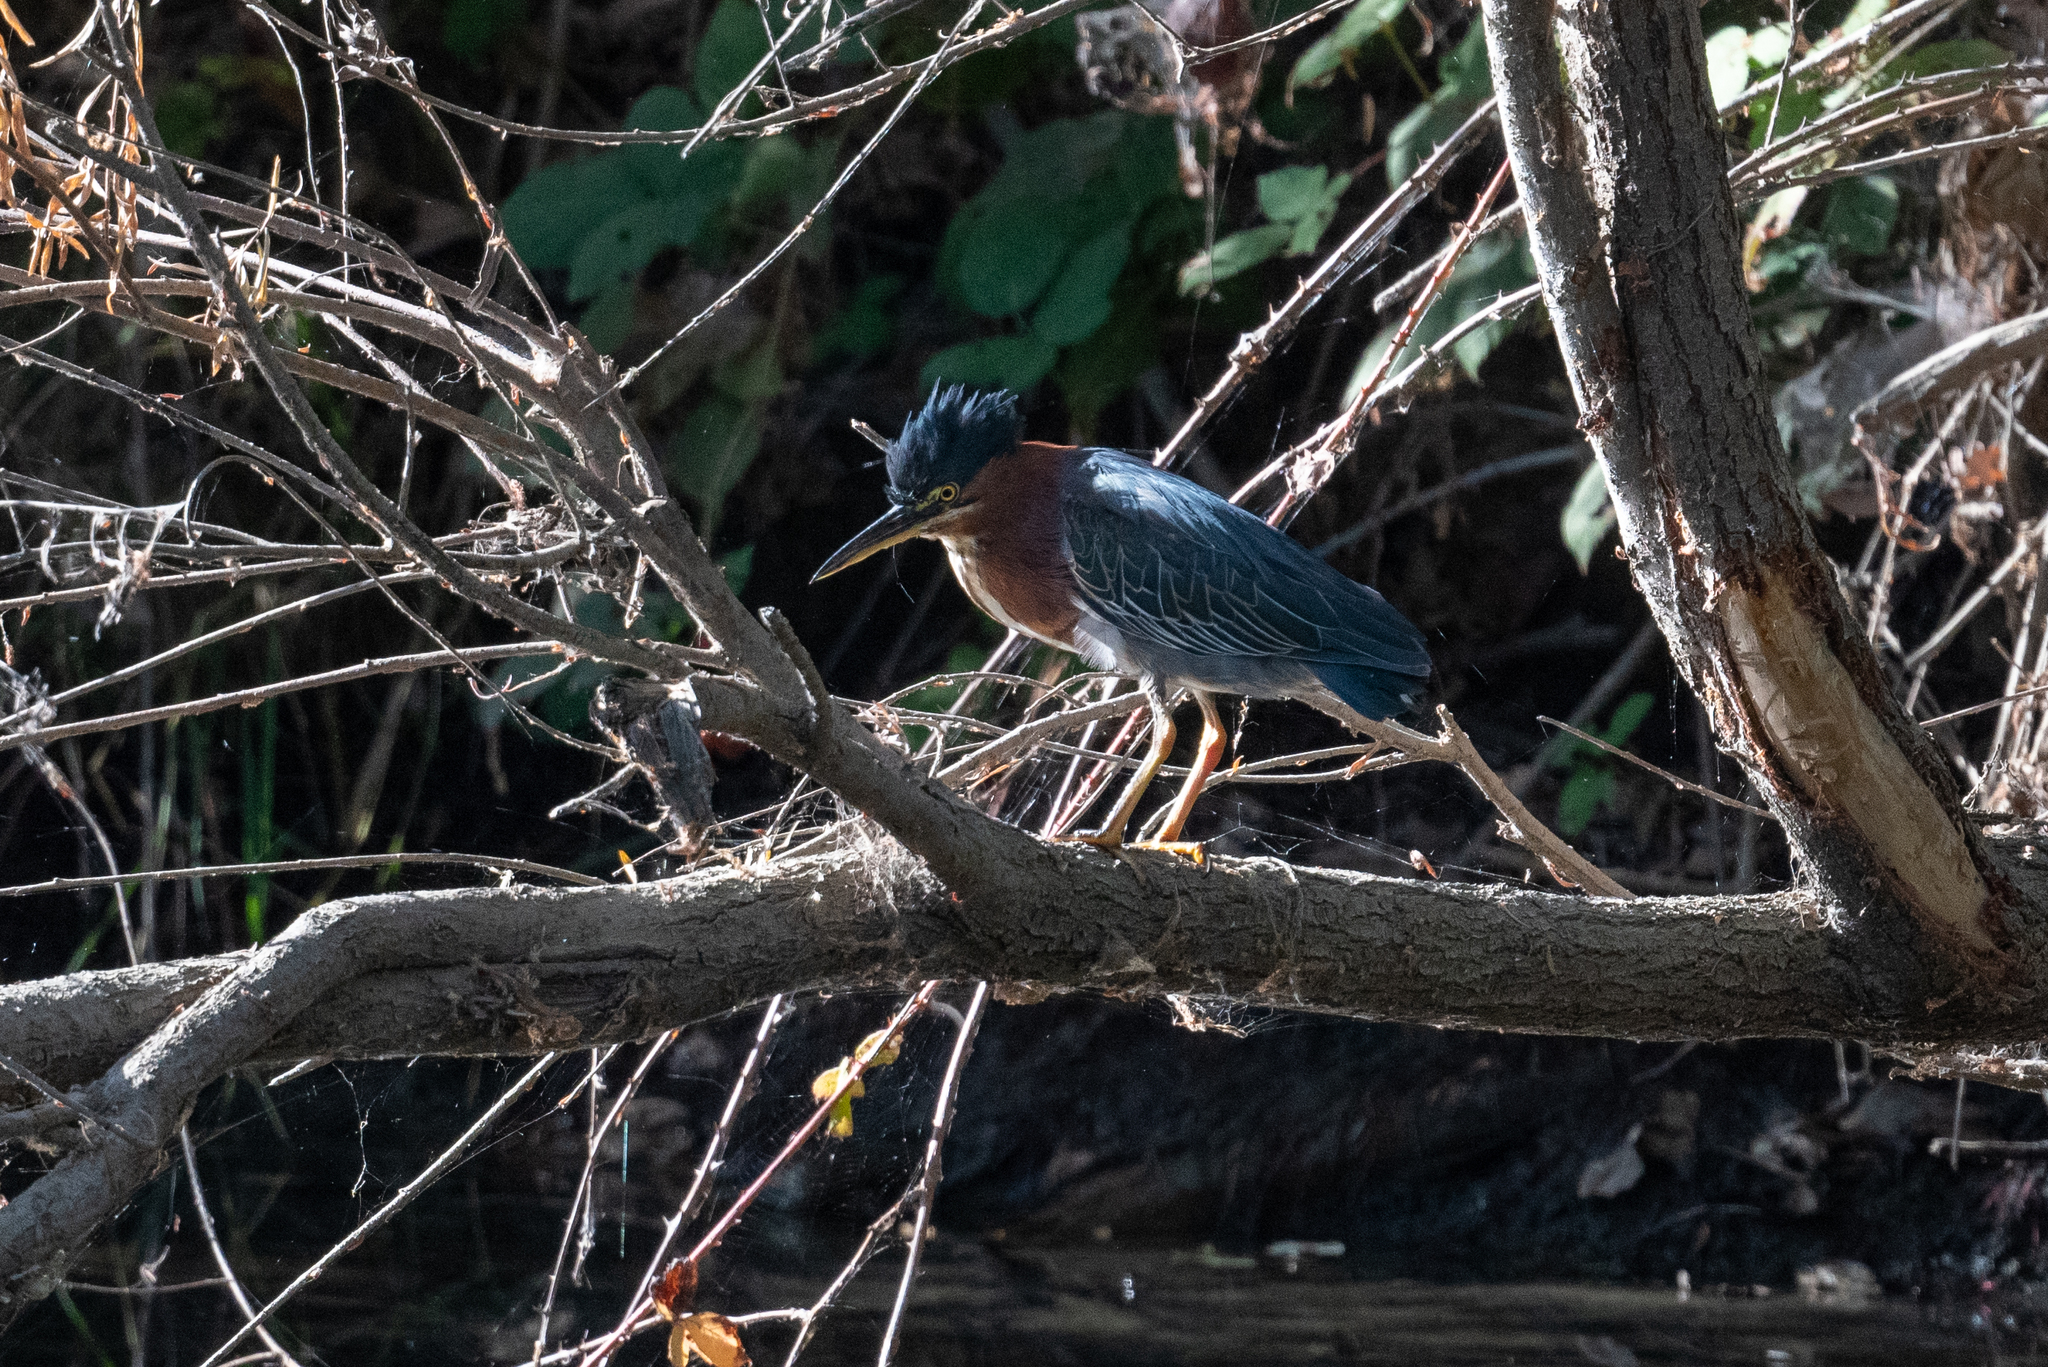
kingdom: Animalia
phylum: Chordata
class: Aves
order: Pelecaniformes
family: Ardeidae
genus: Butorides
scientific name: Butorides virescens
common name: Green heron
